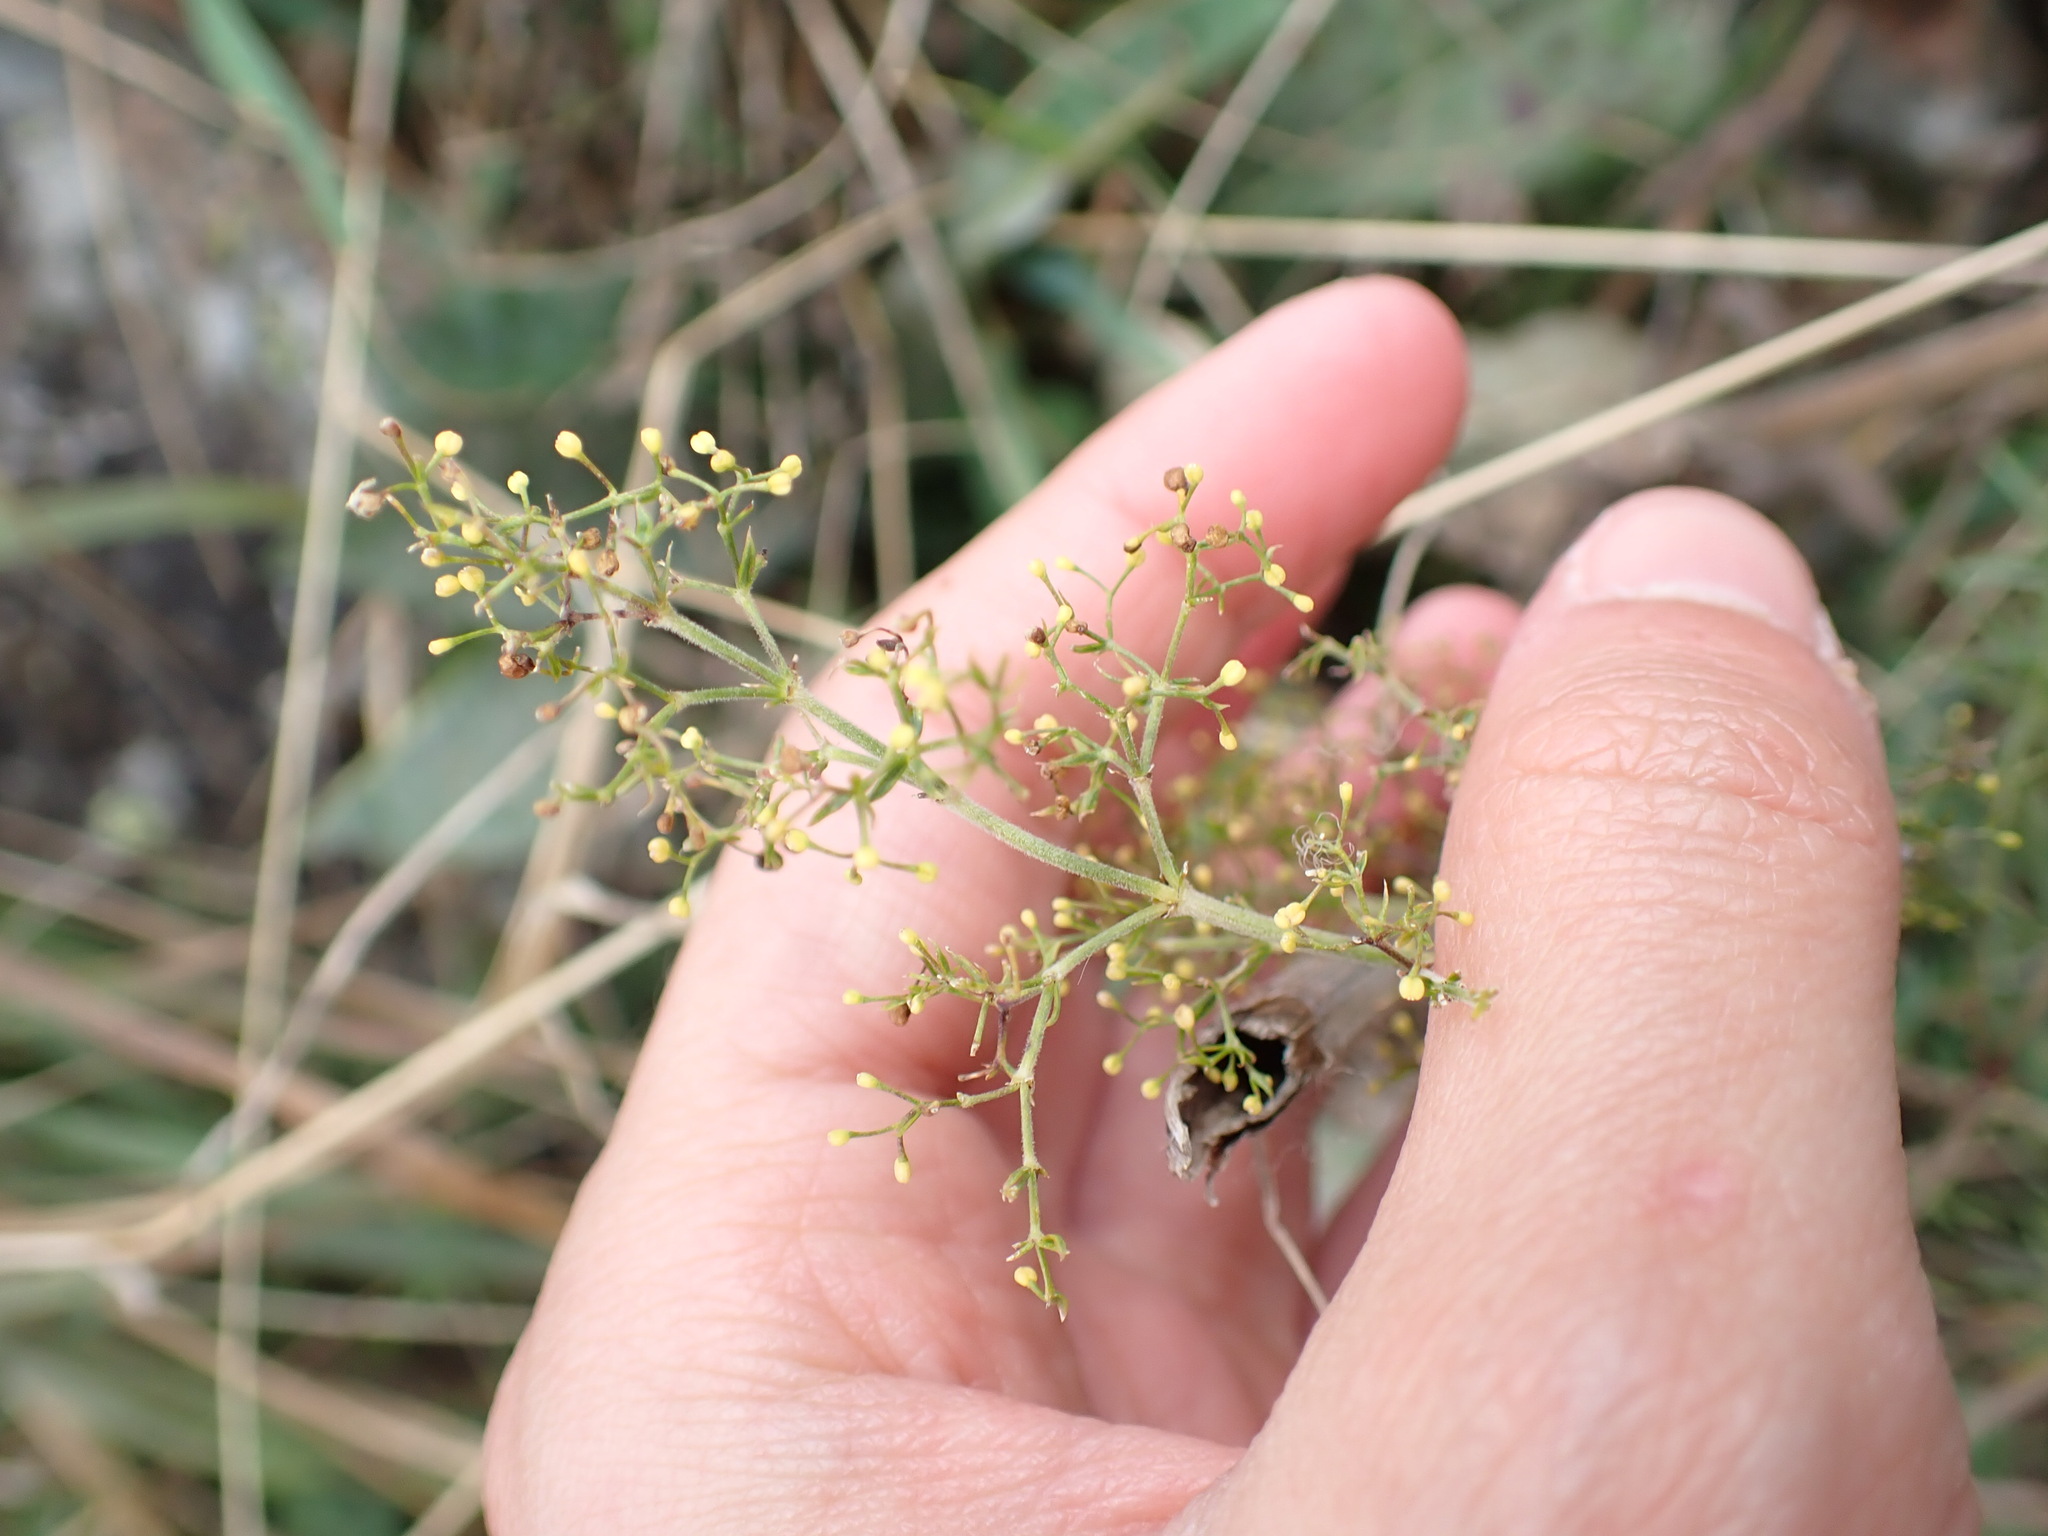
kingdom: Plantae
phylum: Tracheophyta
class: Magnoliopsida
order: Gentianales
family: Rubiaceae
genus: Galium
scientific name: Galium verum
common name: Lady's bedstraw
